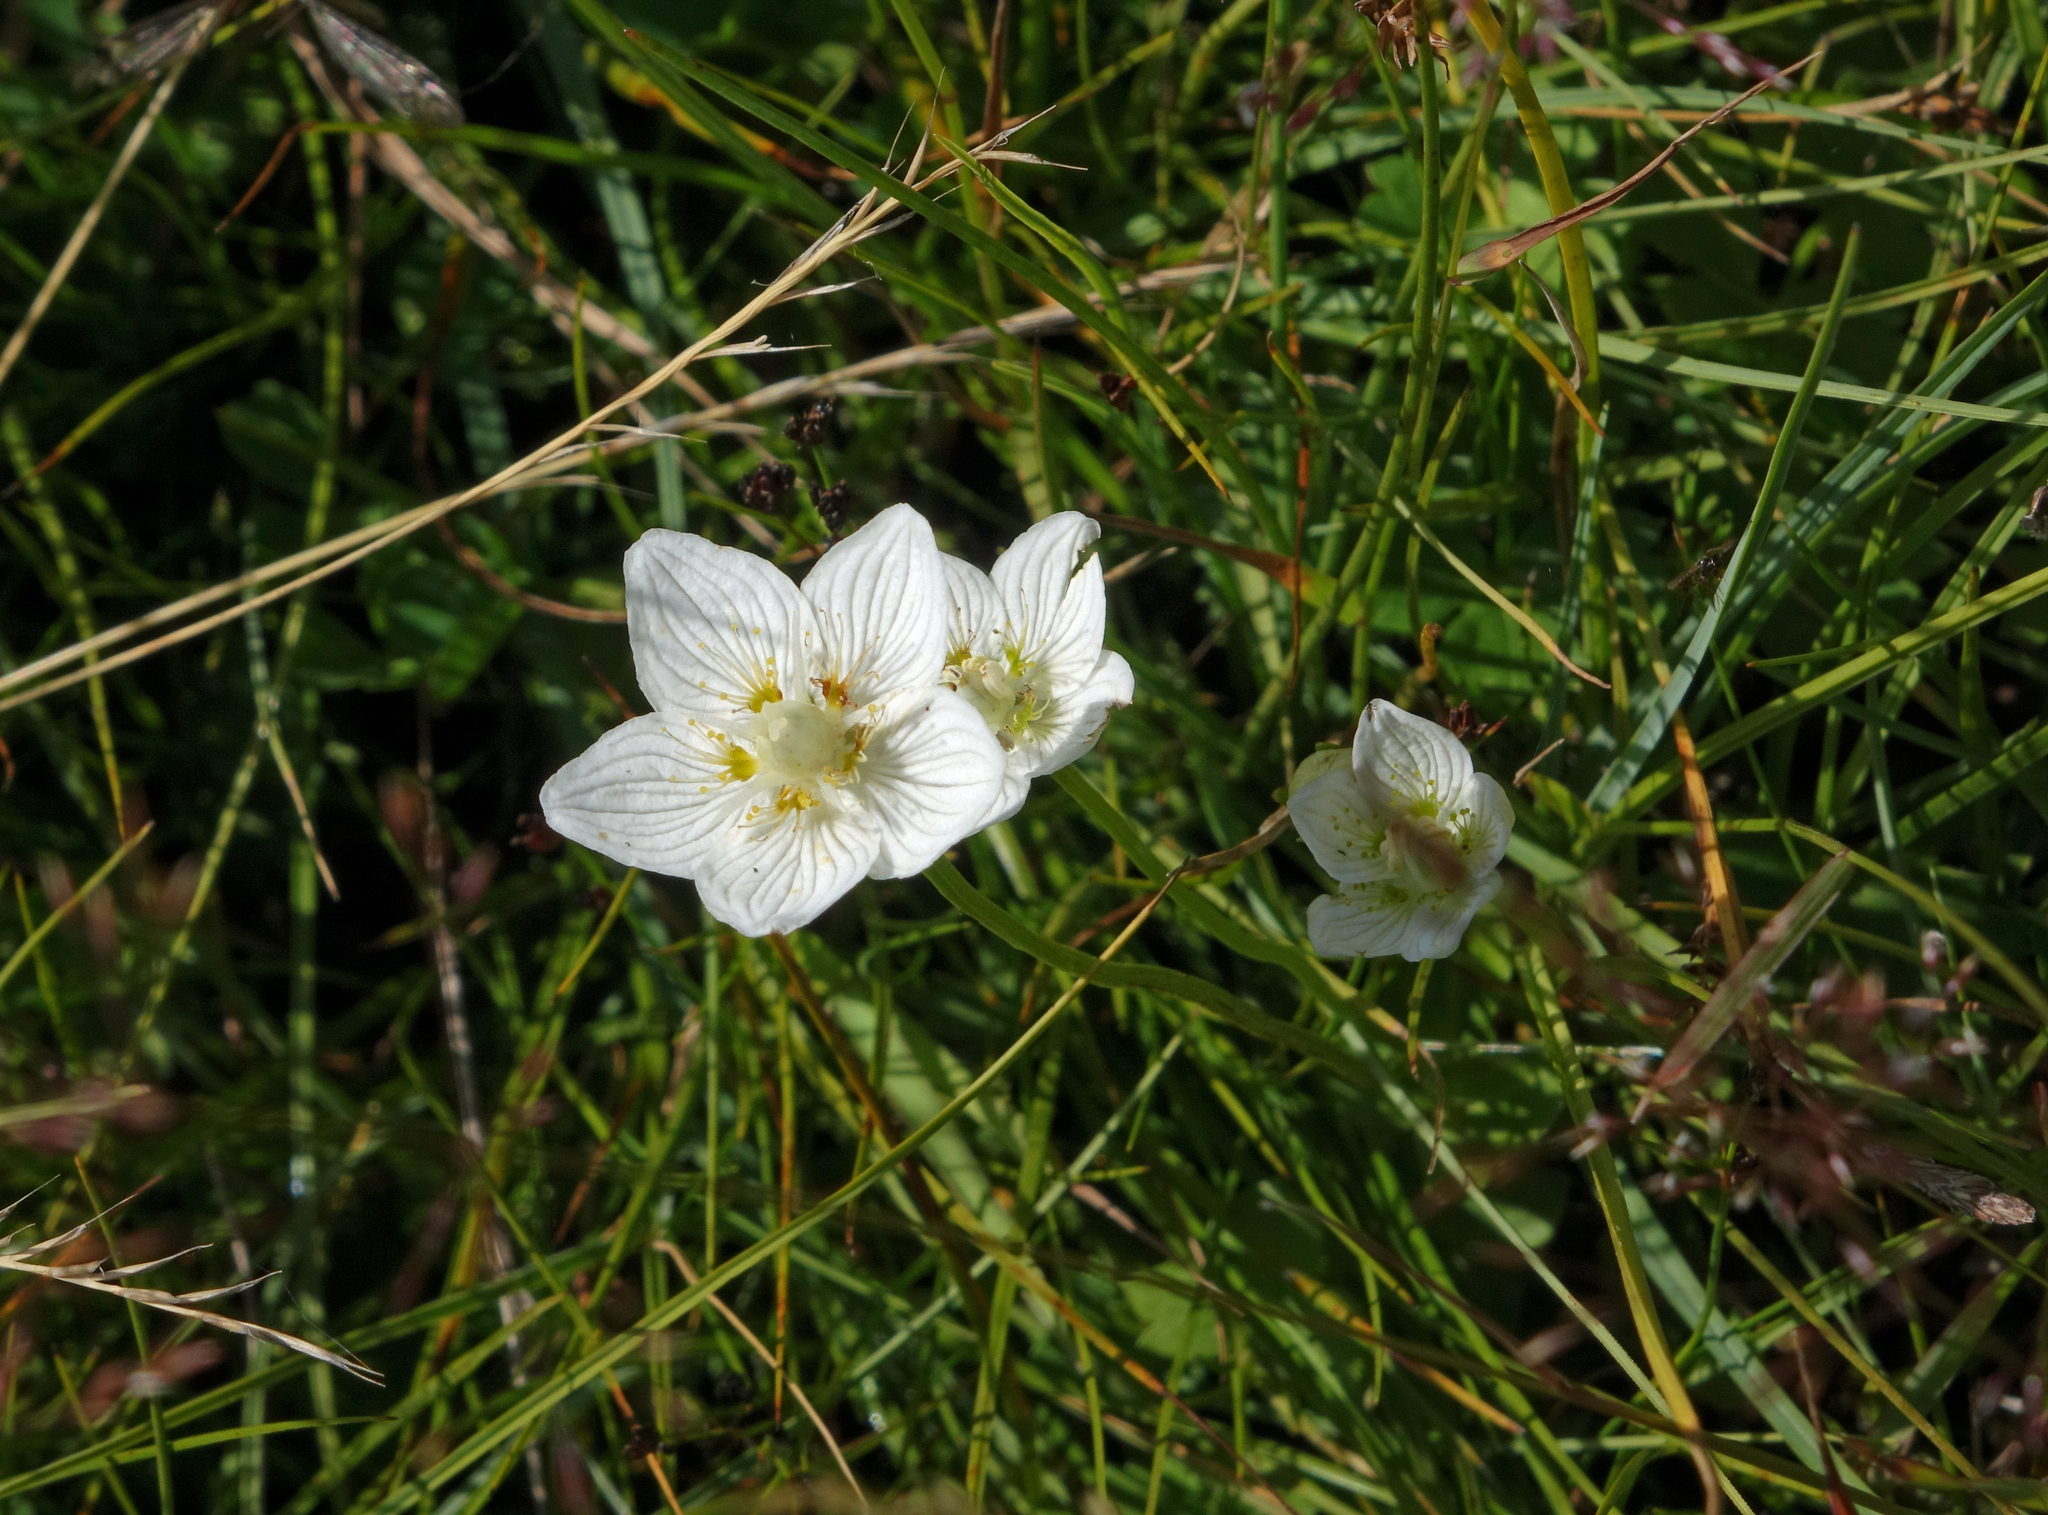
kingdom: Plantae
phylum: Tracheophyta
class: Magnoliopsida
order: Celastrales
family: Parnassiaceae
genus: Parnassia
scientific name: Parnassia palustris
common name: Grass-of-parnassus
